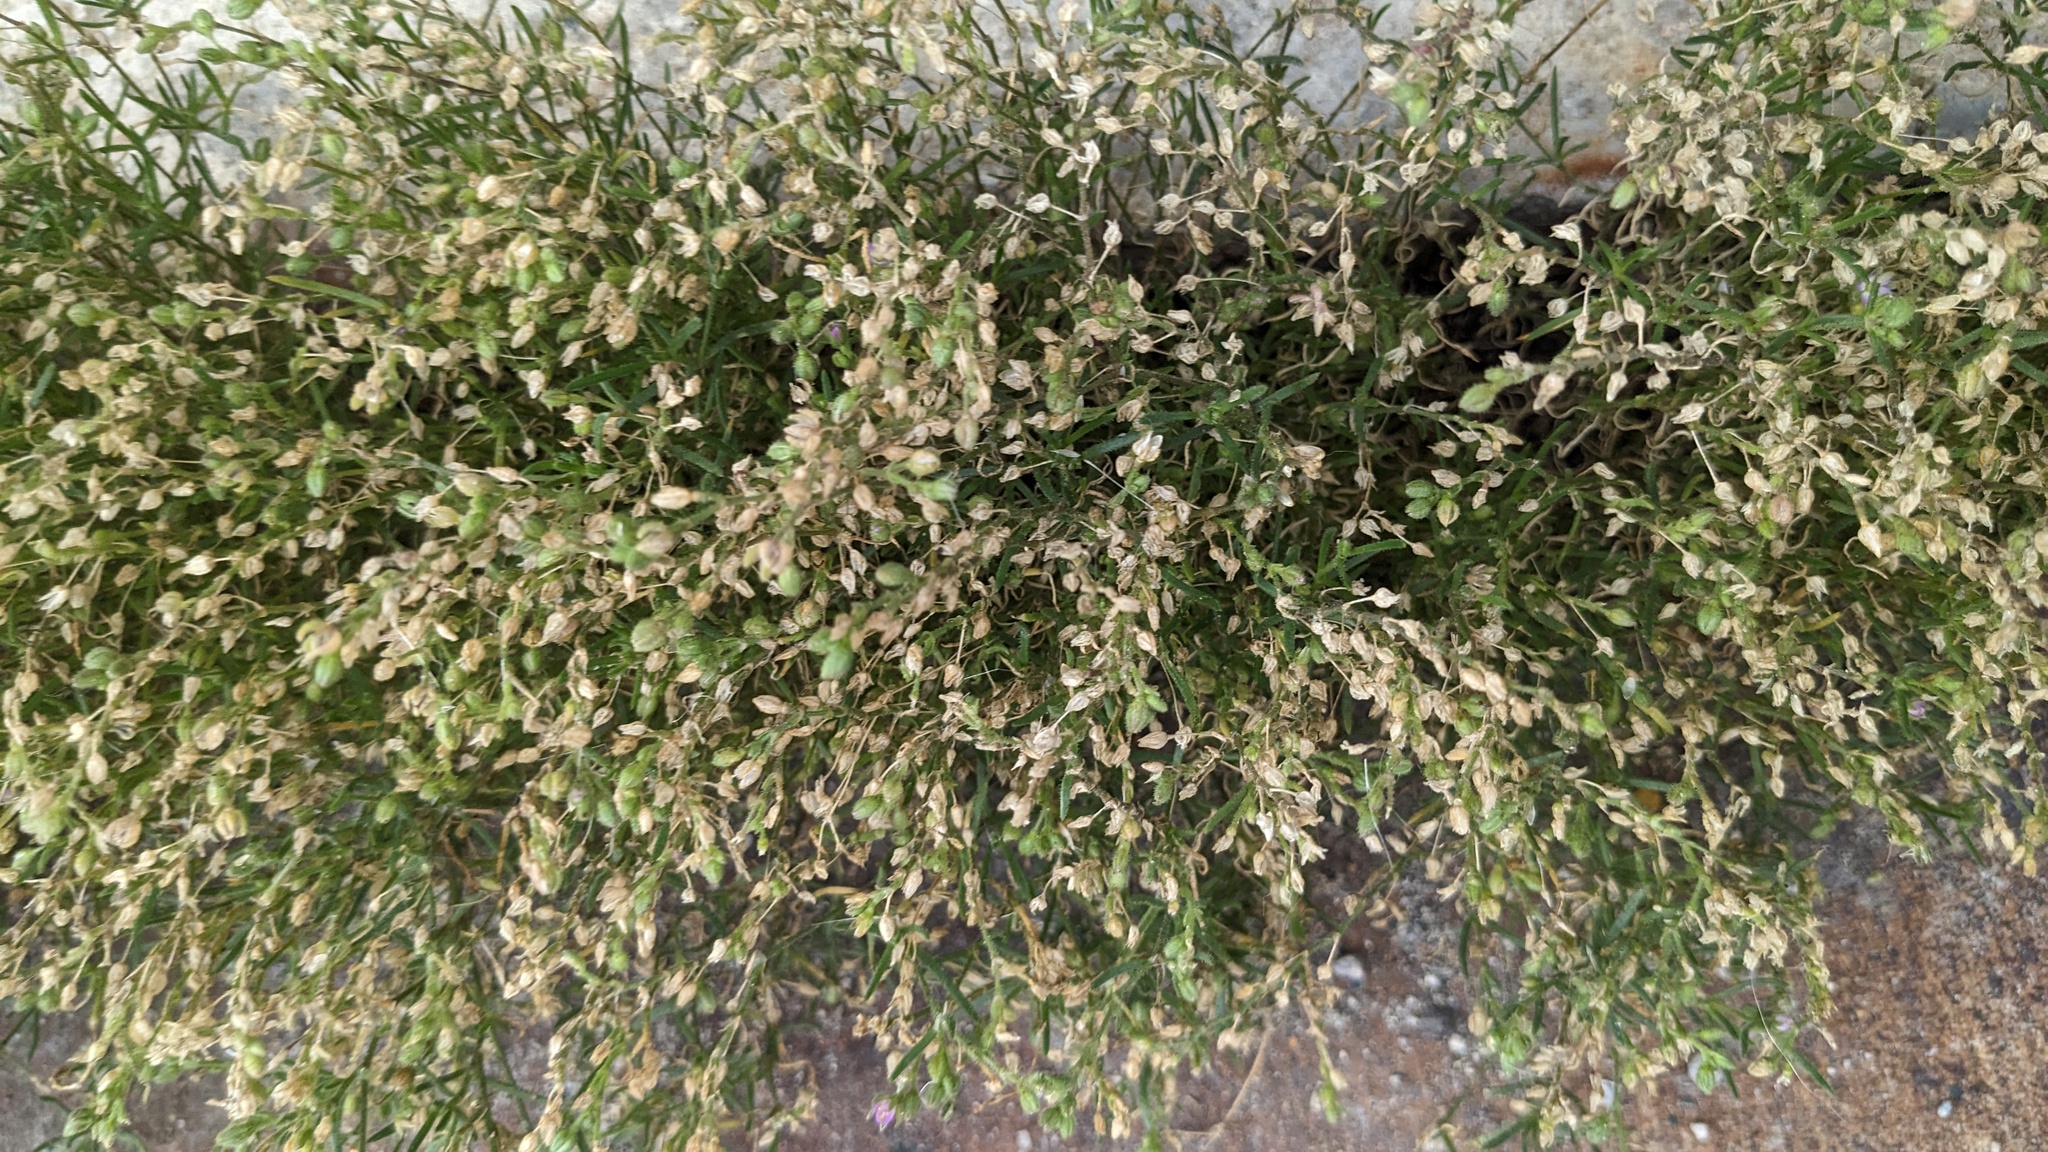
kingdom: Plantae
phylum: Tracheophyta
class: Magnoliopsida
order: Caryophyllales
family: Caryophyllaceae
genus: Spergularia
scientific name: Spergularia marina
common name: Lesser sea-spurrey
